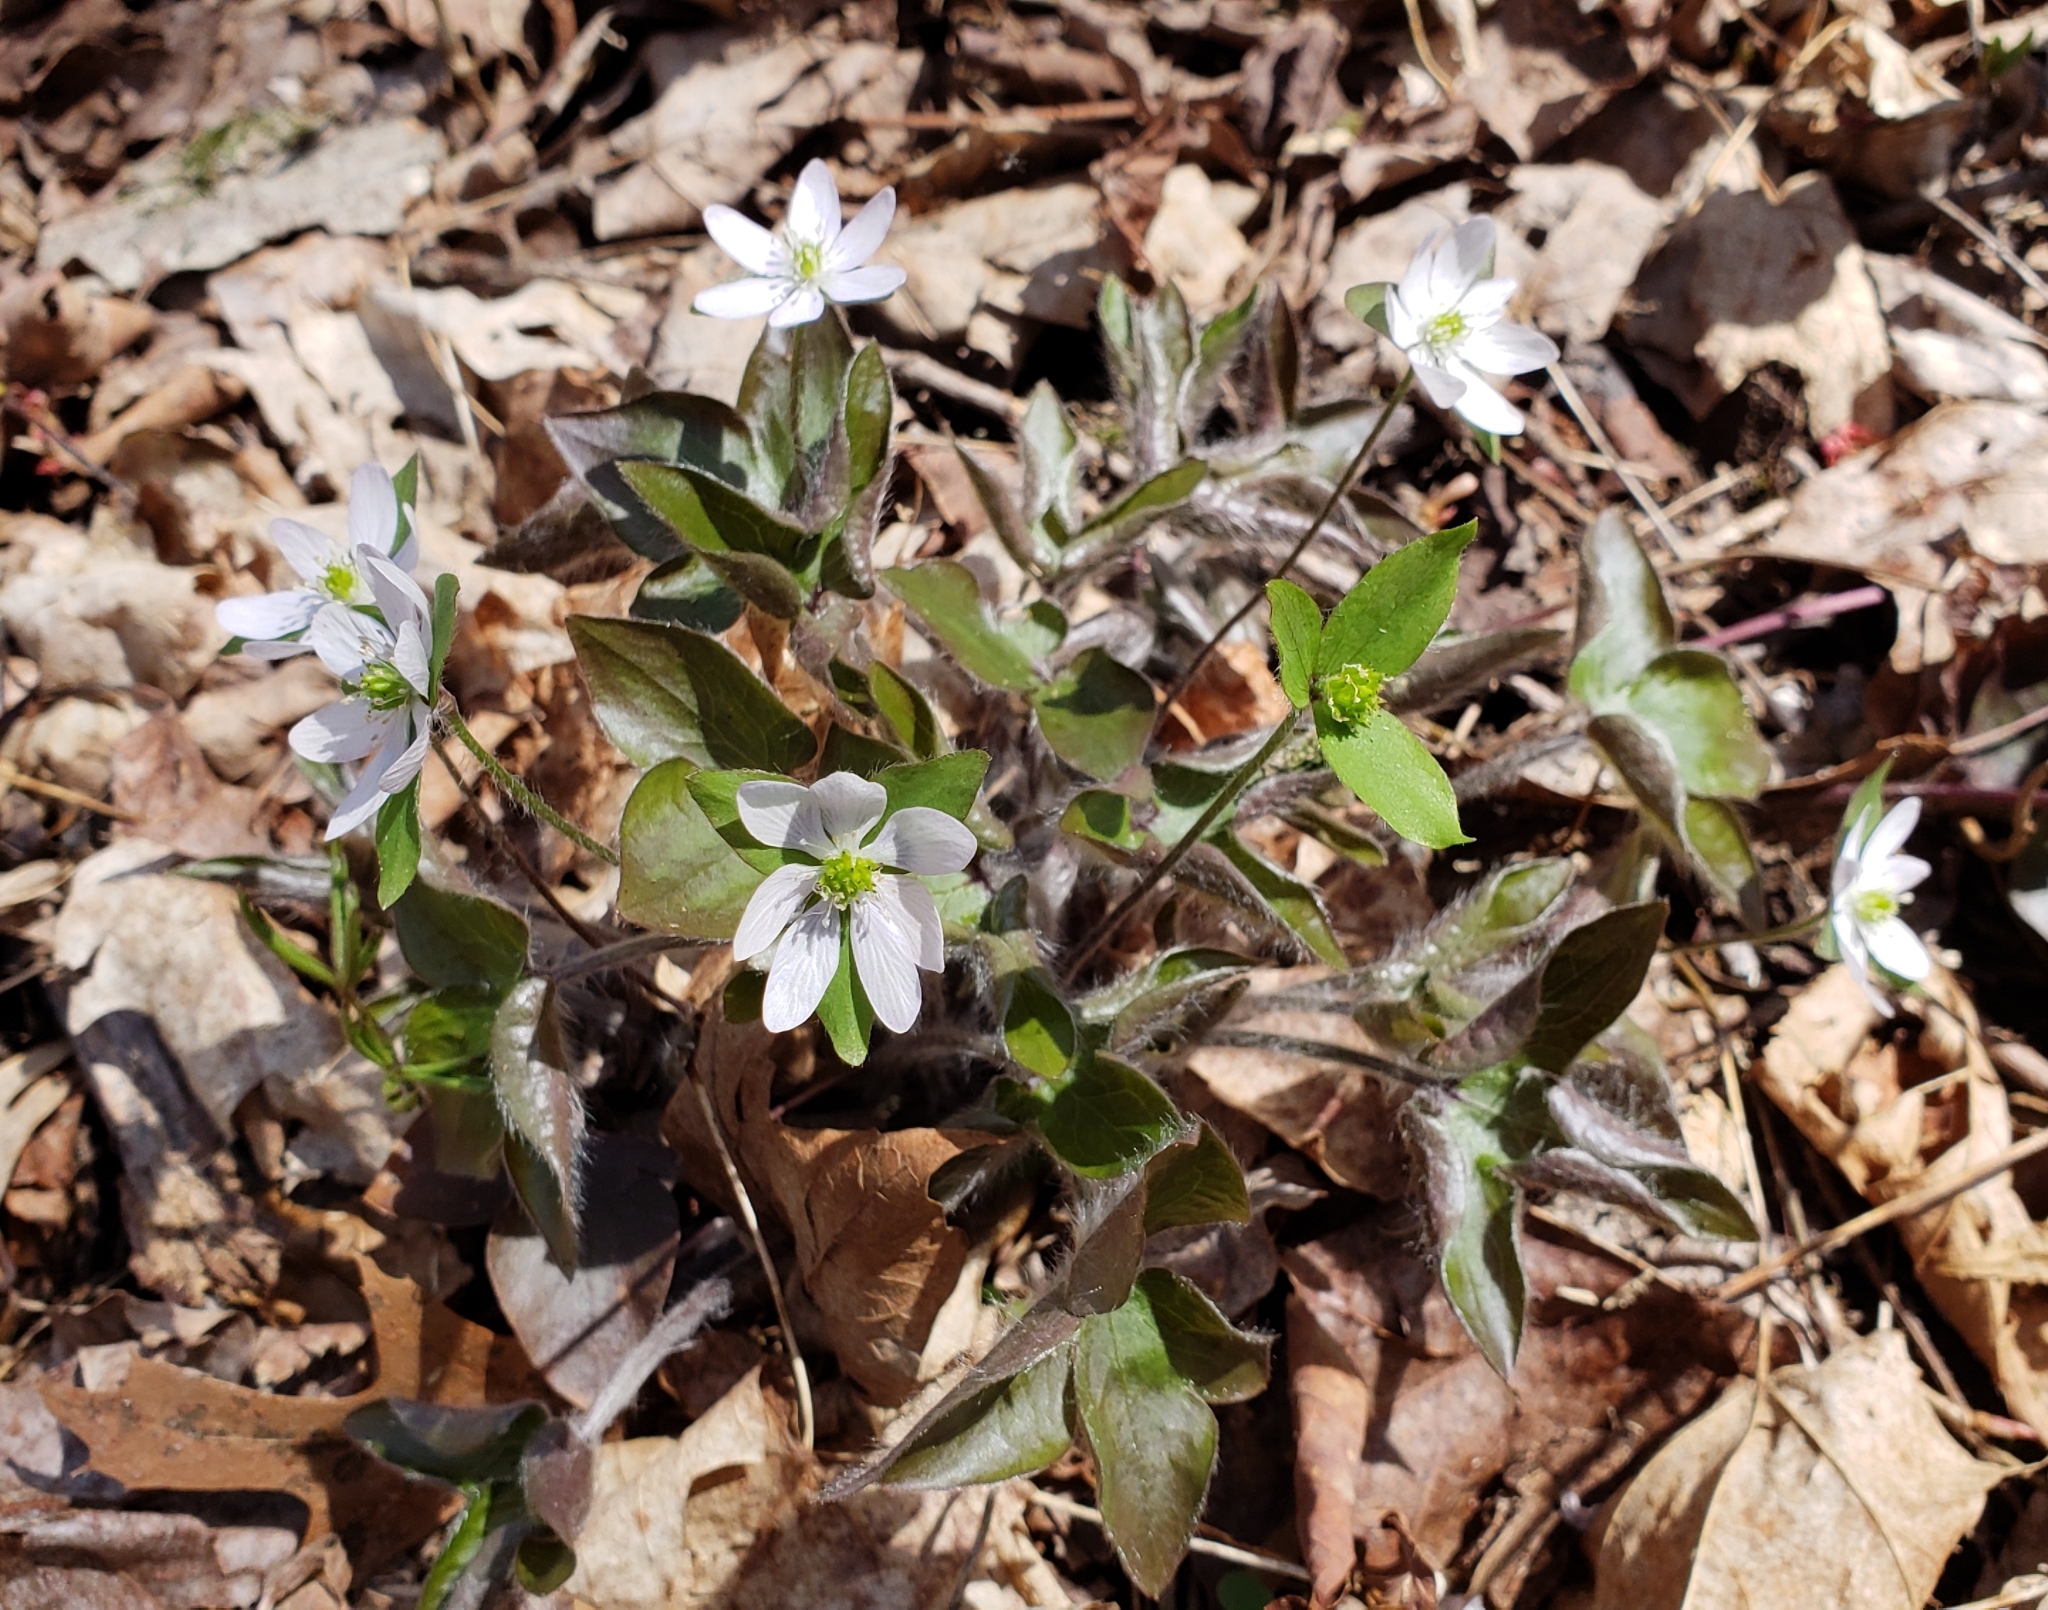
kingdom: Plantae
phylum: Tracheophyta
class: Magnoliopsida
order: Ranunculales
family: Ranunculaceae
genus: Hepatica
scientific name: Hepatica acutiloba
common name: Sharp-lobed hepatica
